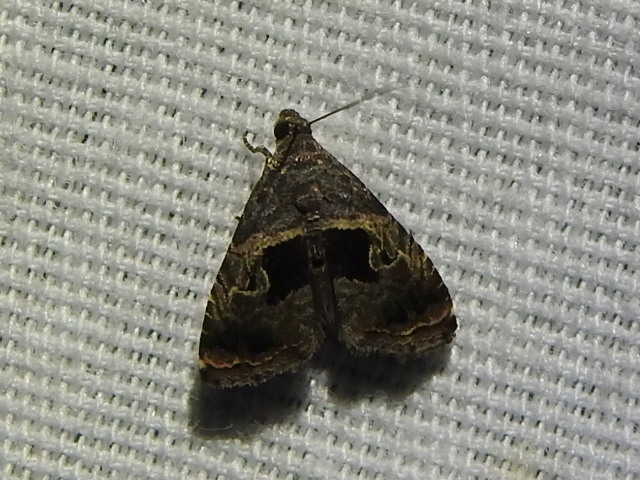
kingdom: Animalia
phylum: Arthropoda
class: Insecta
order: Lepidoptera
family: Noctuidae
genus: Tripudia
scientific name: Tripudia quadrifera
